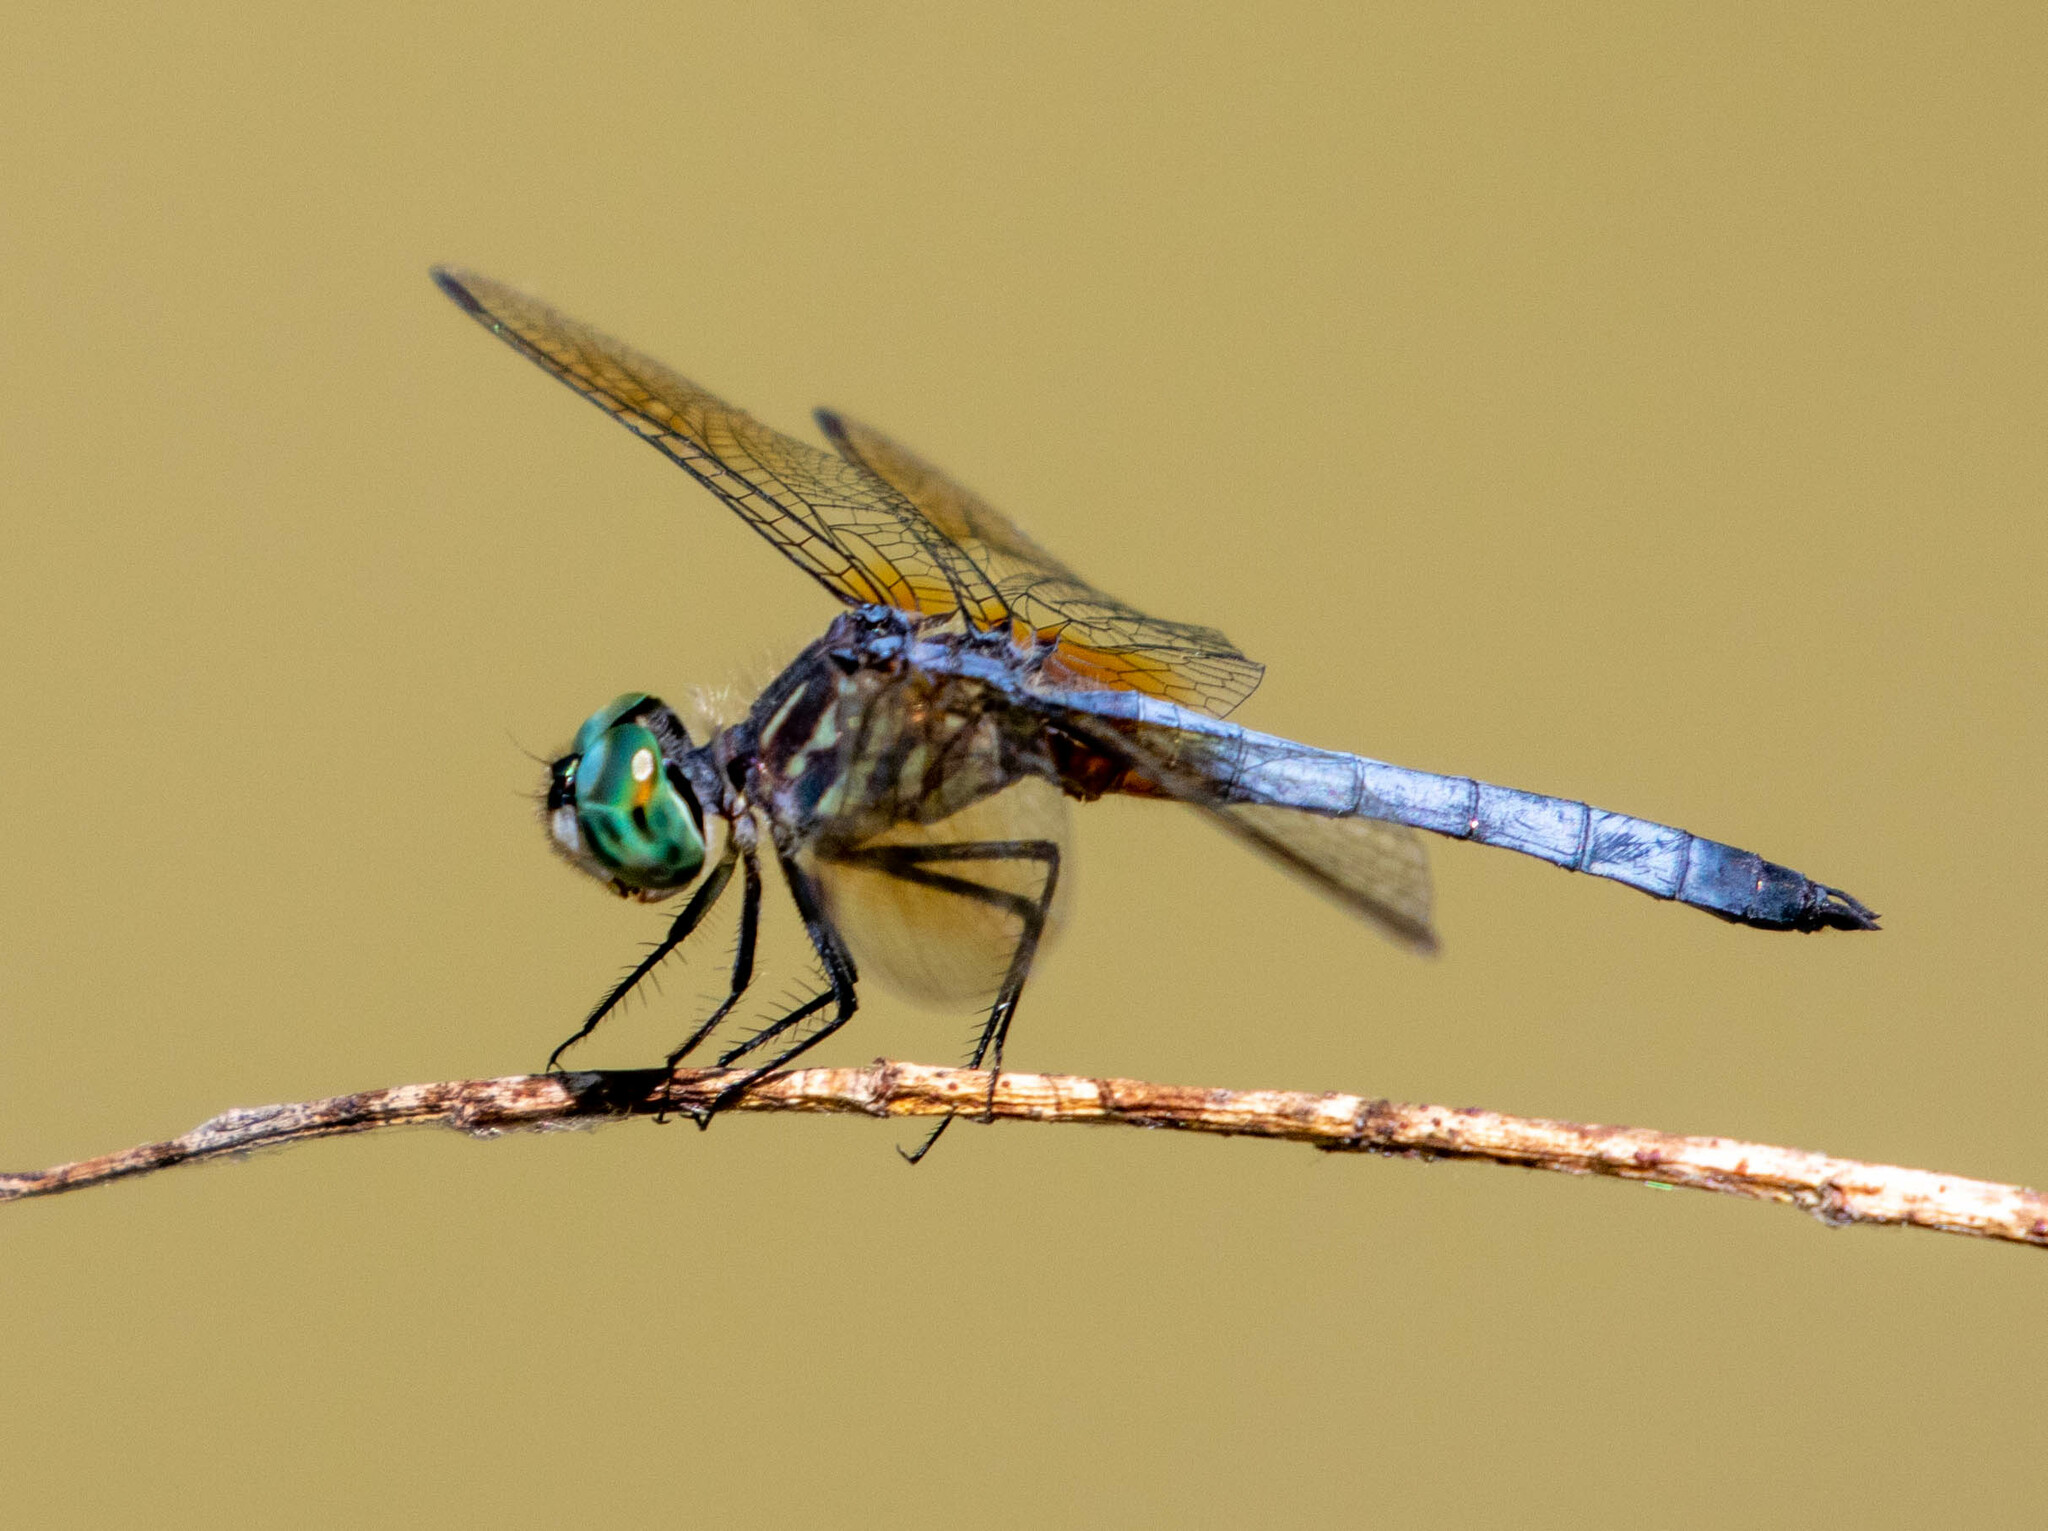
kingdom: Animalia
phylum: Arthropoda
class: Insecta
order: Odonata
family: Libellulidae
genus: Pachydiplax
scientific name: Pachydiplax longipennis
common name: Blue dasher
